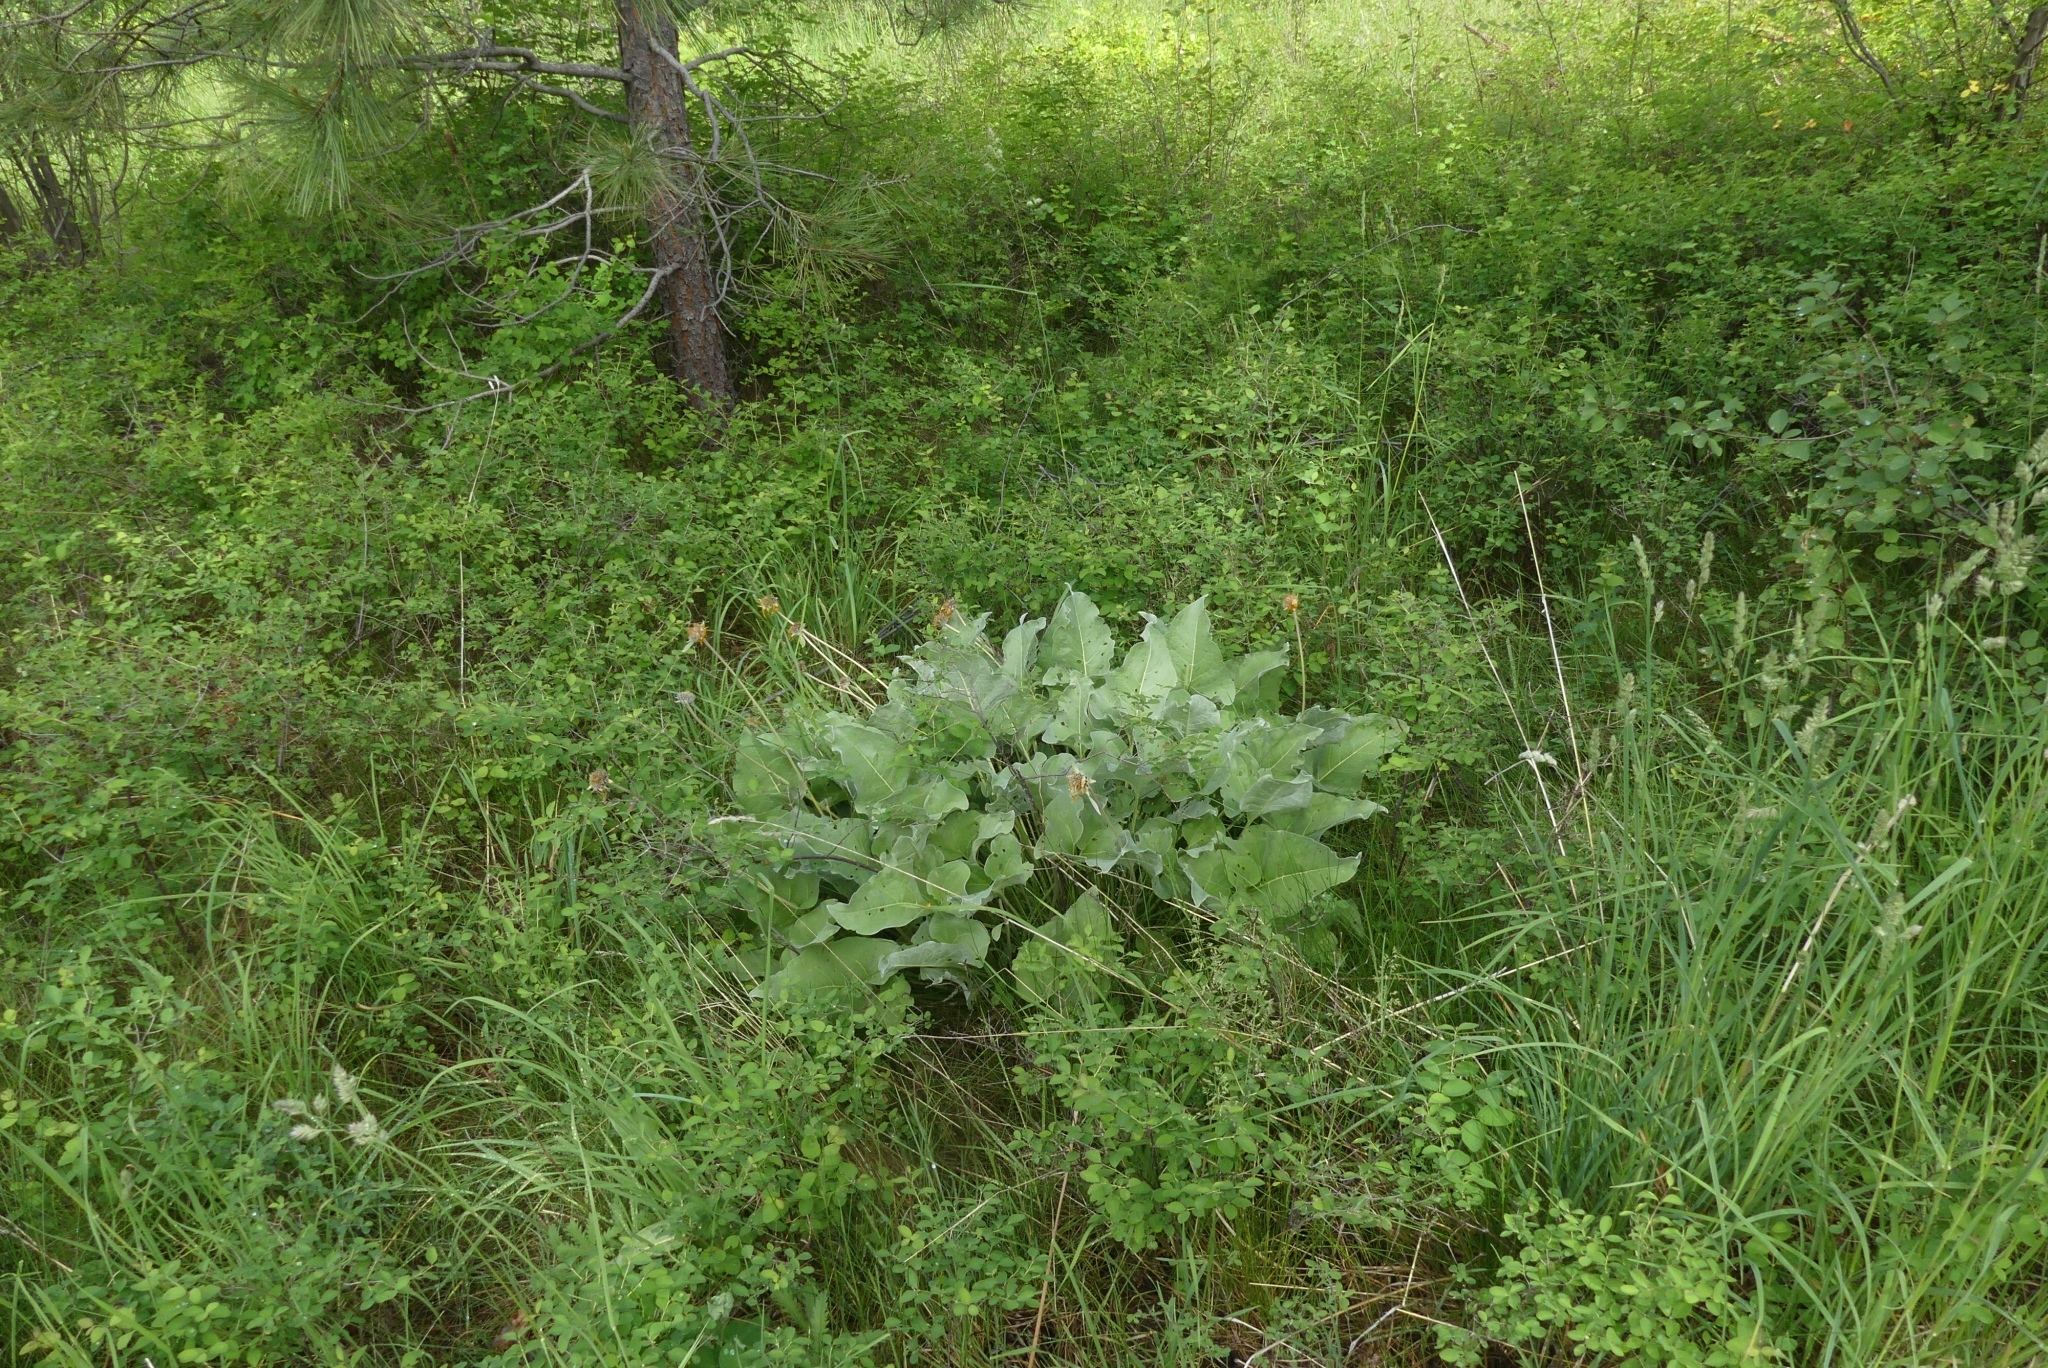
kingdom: Plantae
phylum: Tracheophyta
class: Magnoliopsida
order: Asterales
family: Asteraceae
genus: Wyethia
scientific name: Wyethia sagittata
